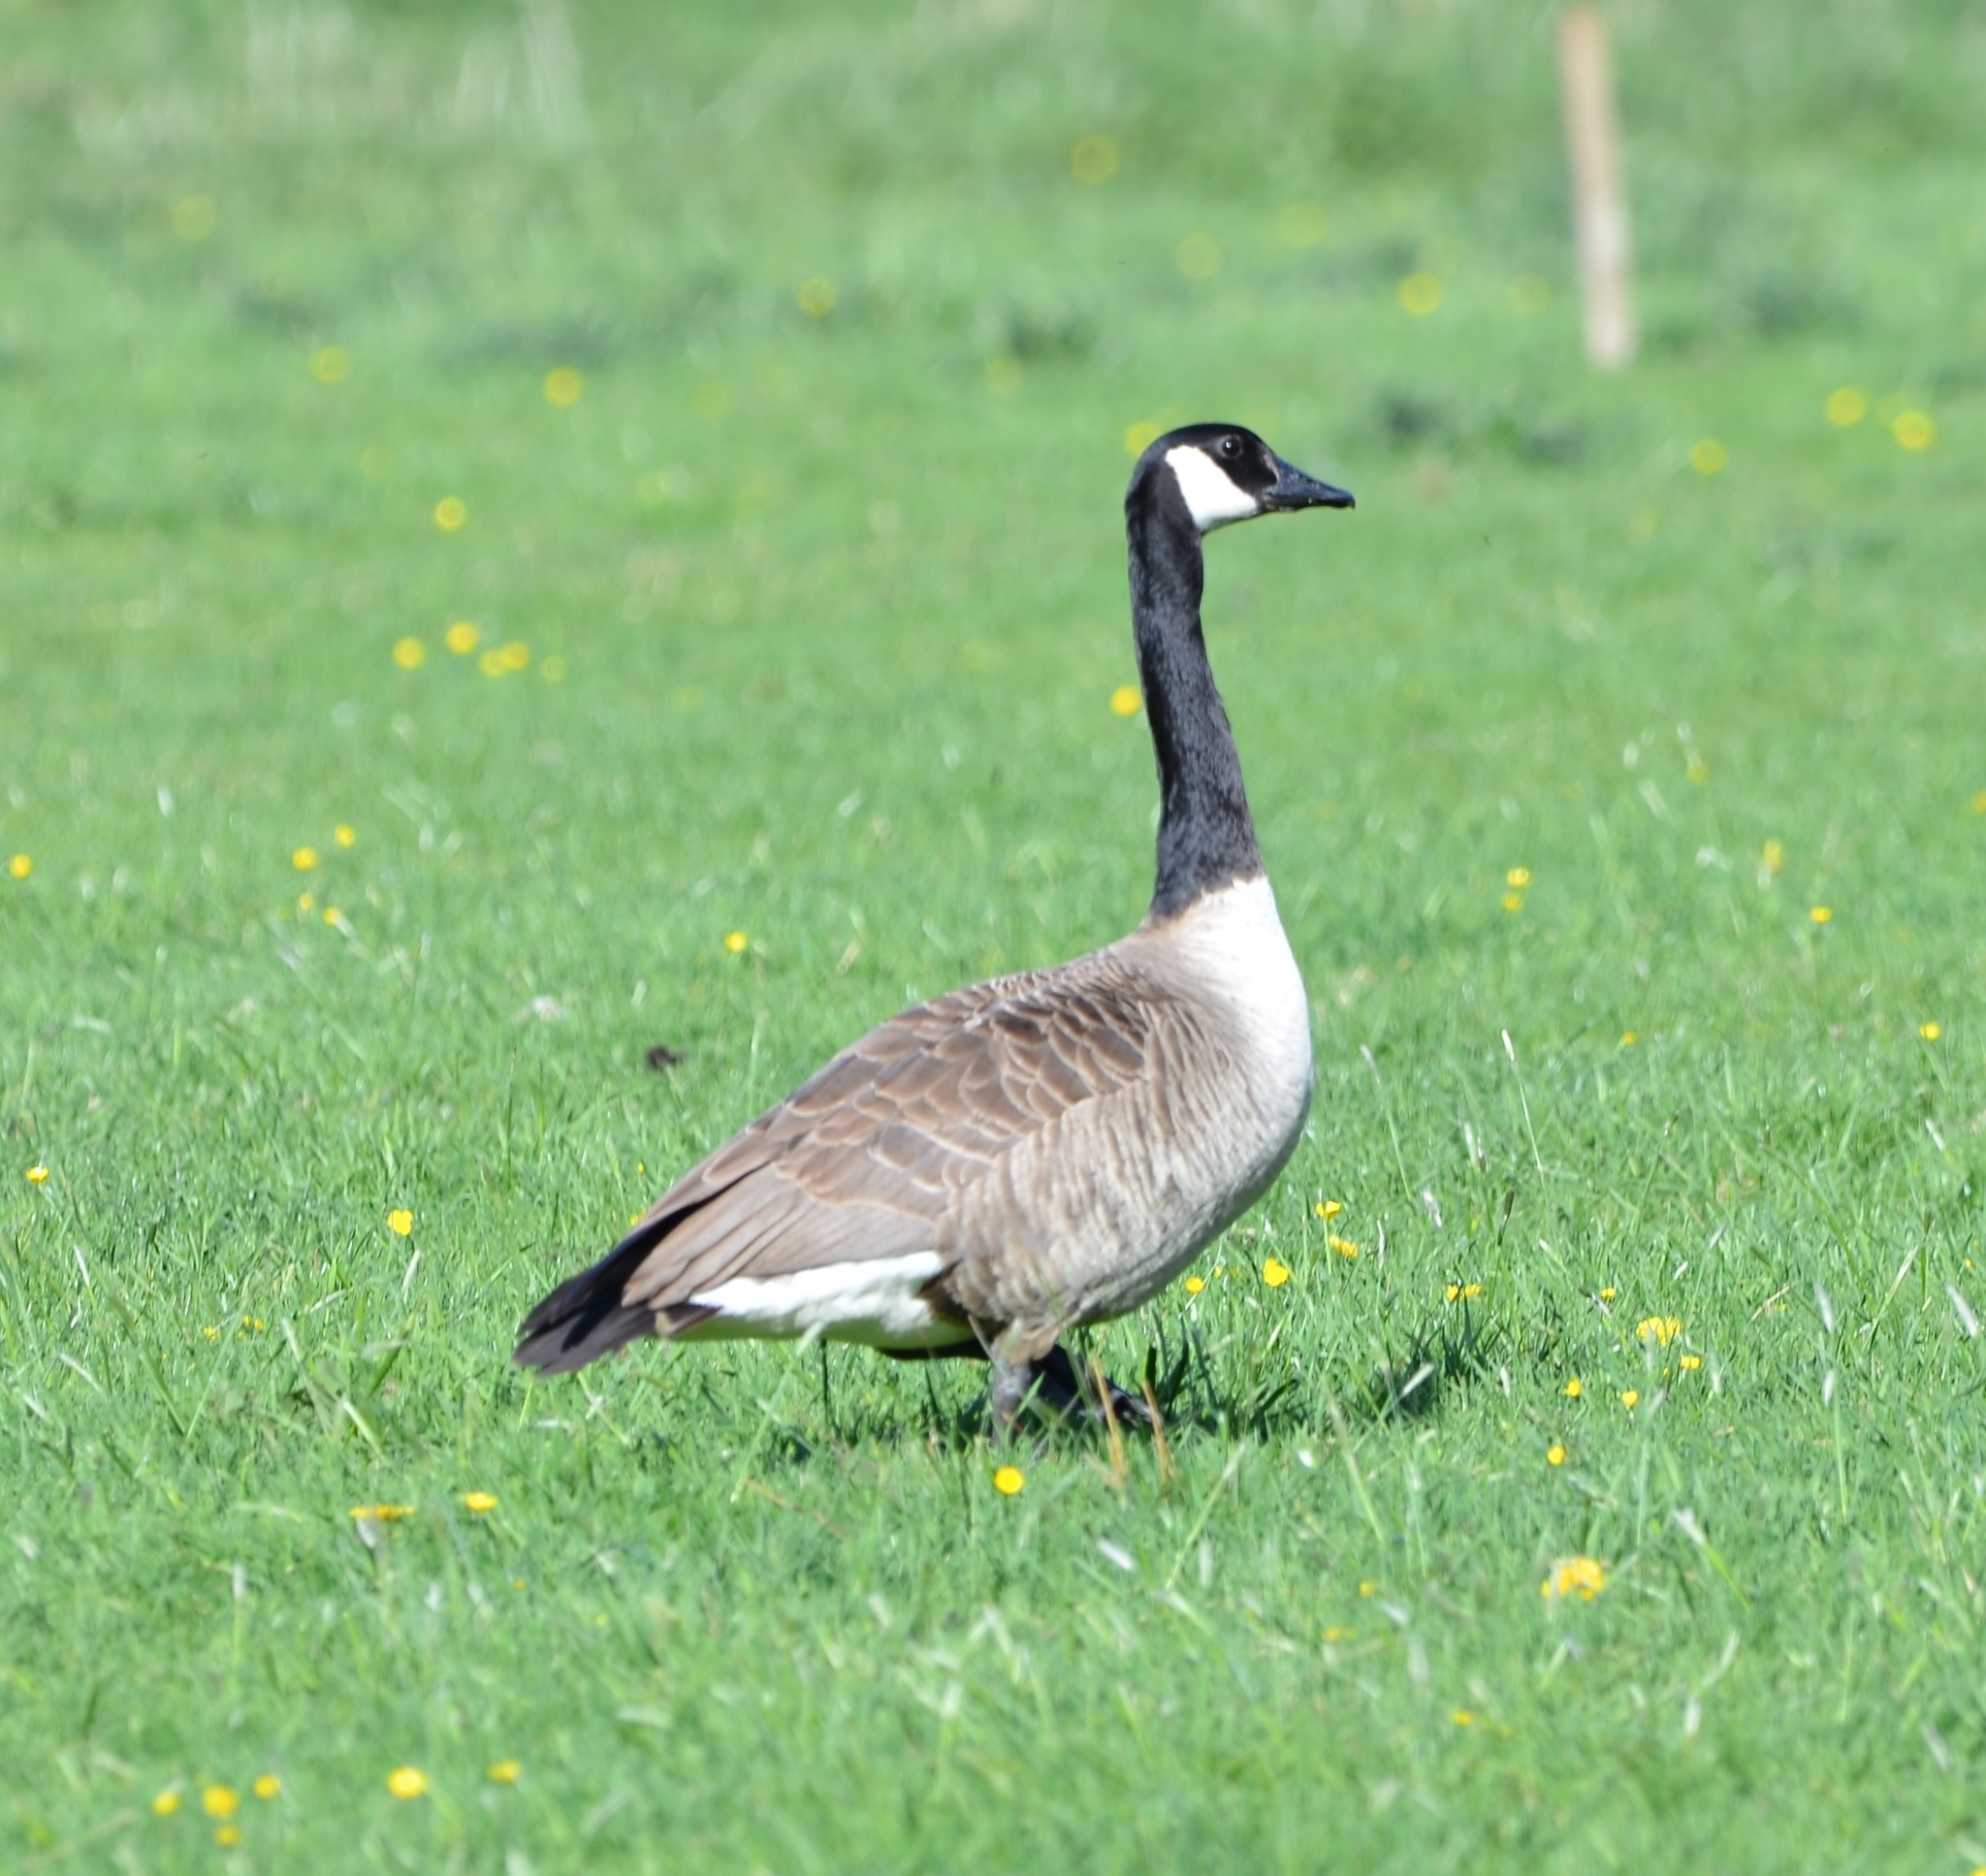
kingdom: Animalia
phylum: Chordata
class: Aves
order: Anseriformes
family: Anatidae
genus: Branta
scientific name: Branta canadensis
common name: Canada goose
